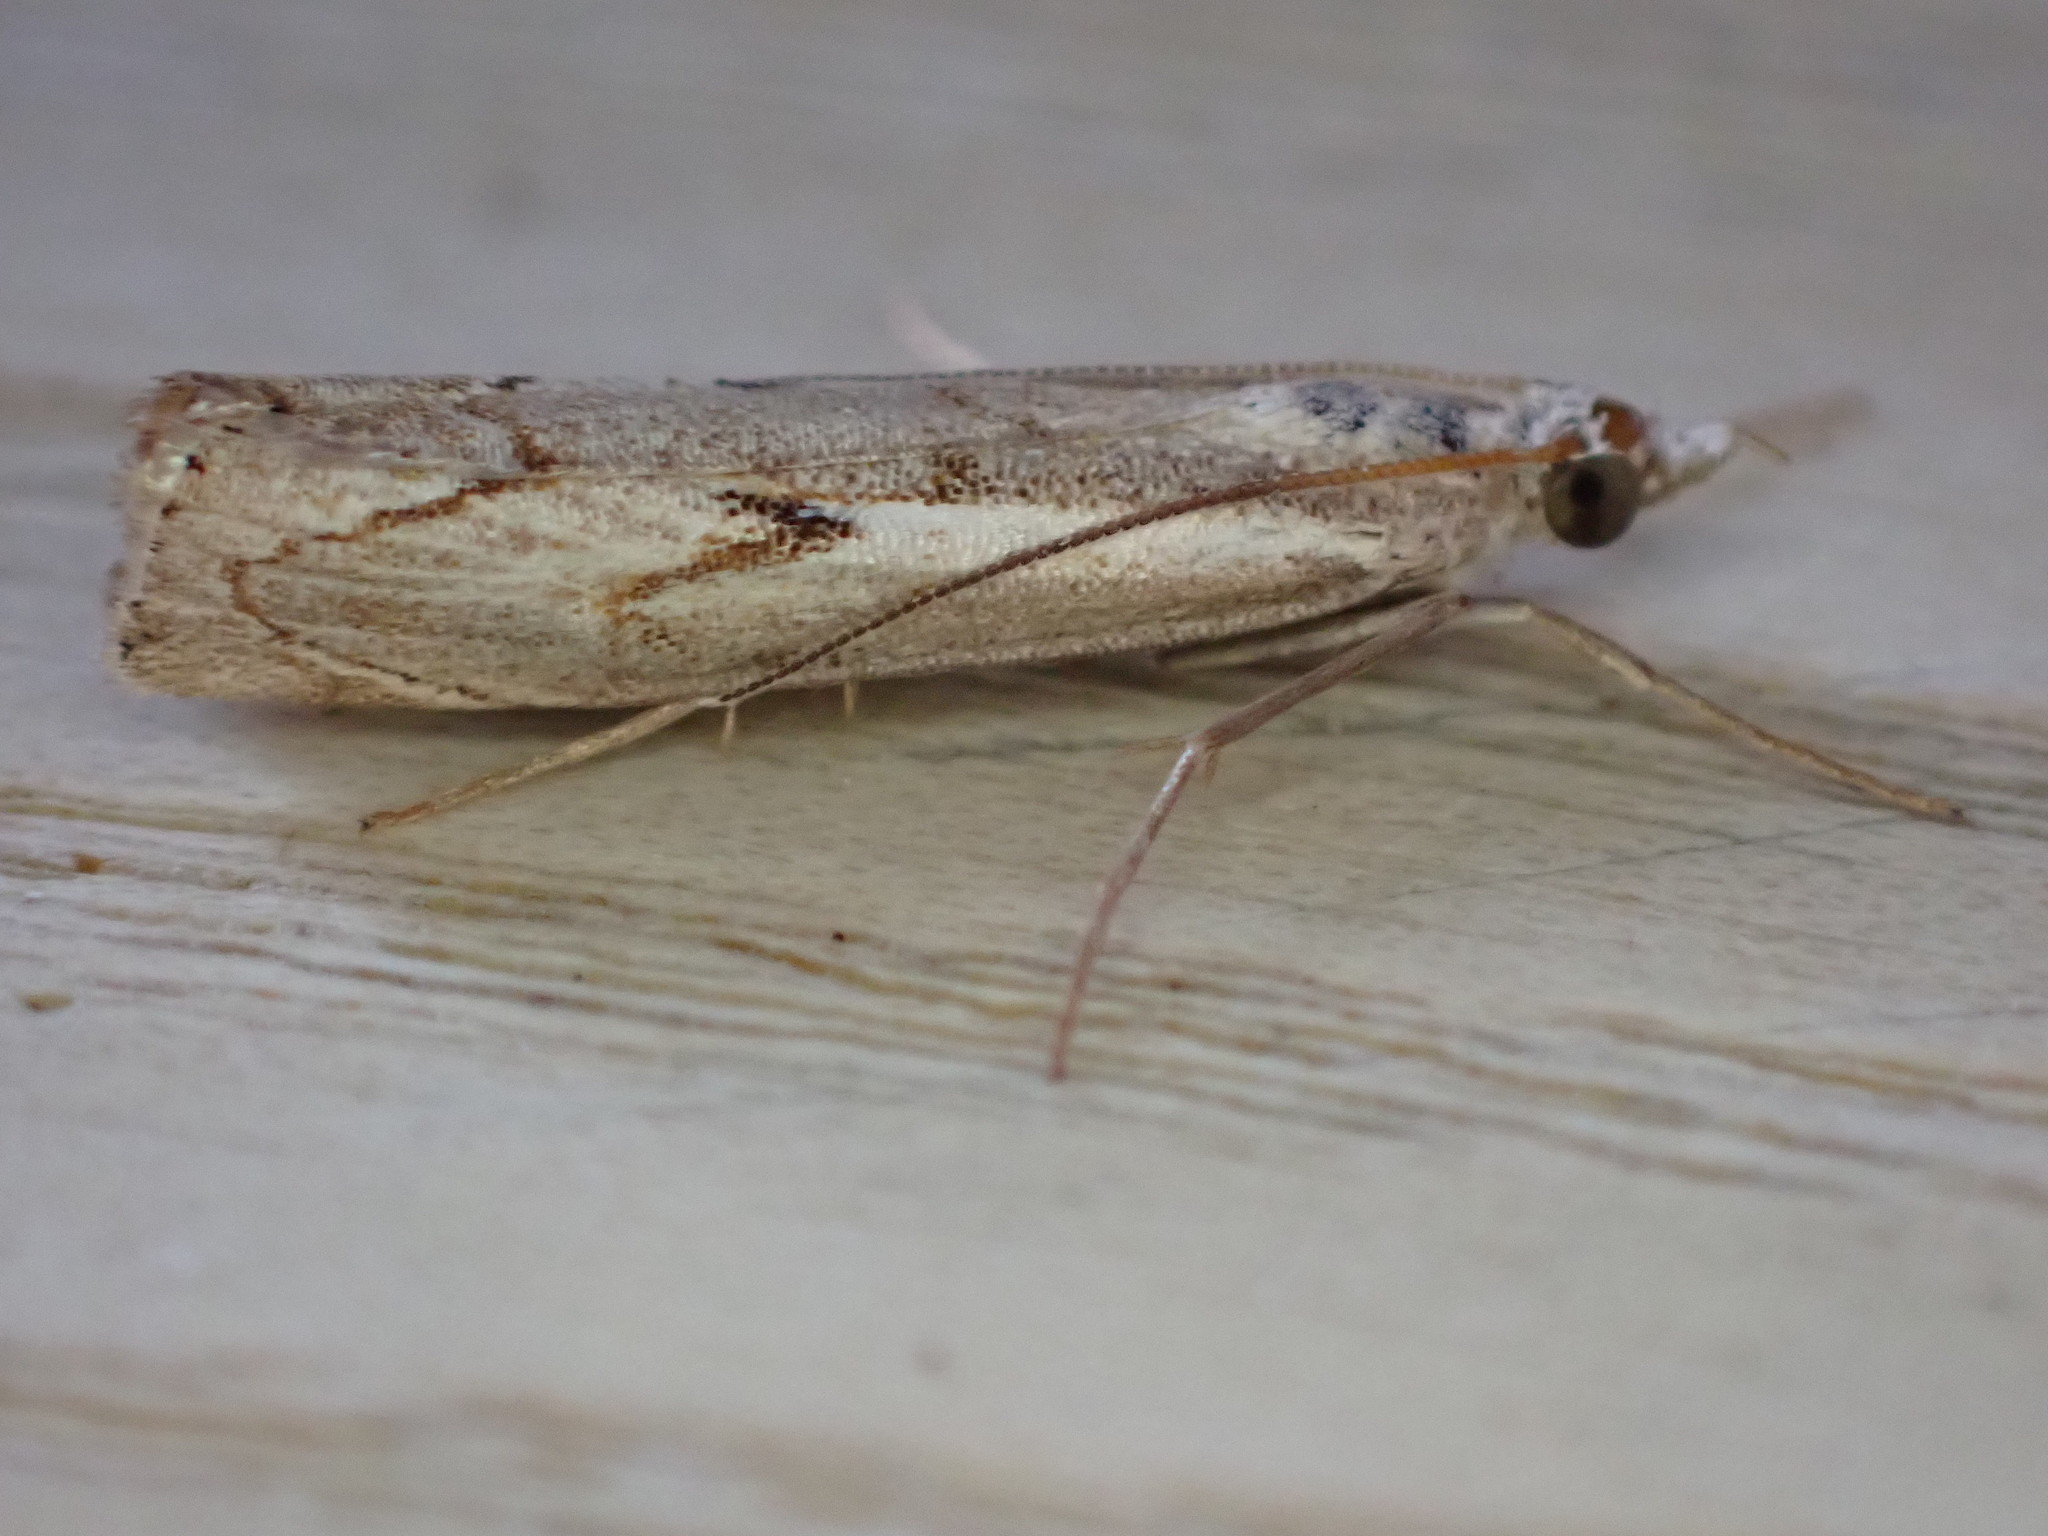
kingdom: Animalia
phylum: Arthropoda
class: Insecta
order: Lepidoptera
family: Crambidae
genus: Agriphila
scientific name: Agriphila geniculea
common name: Elbow-stripe grass-veneer
